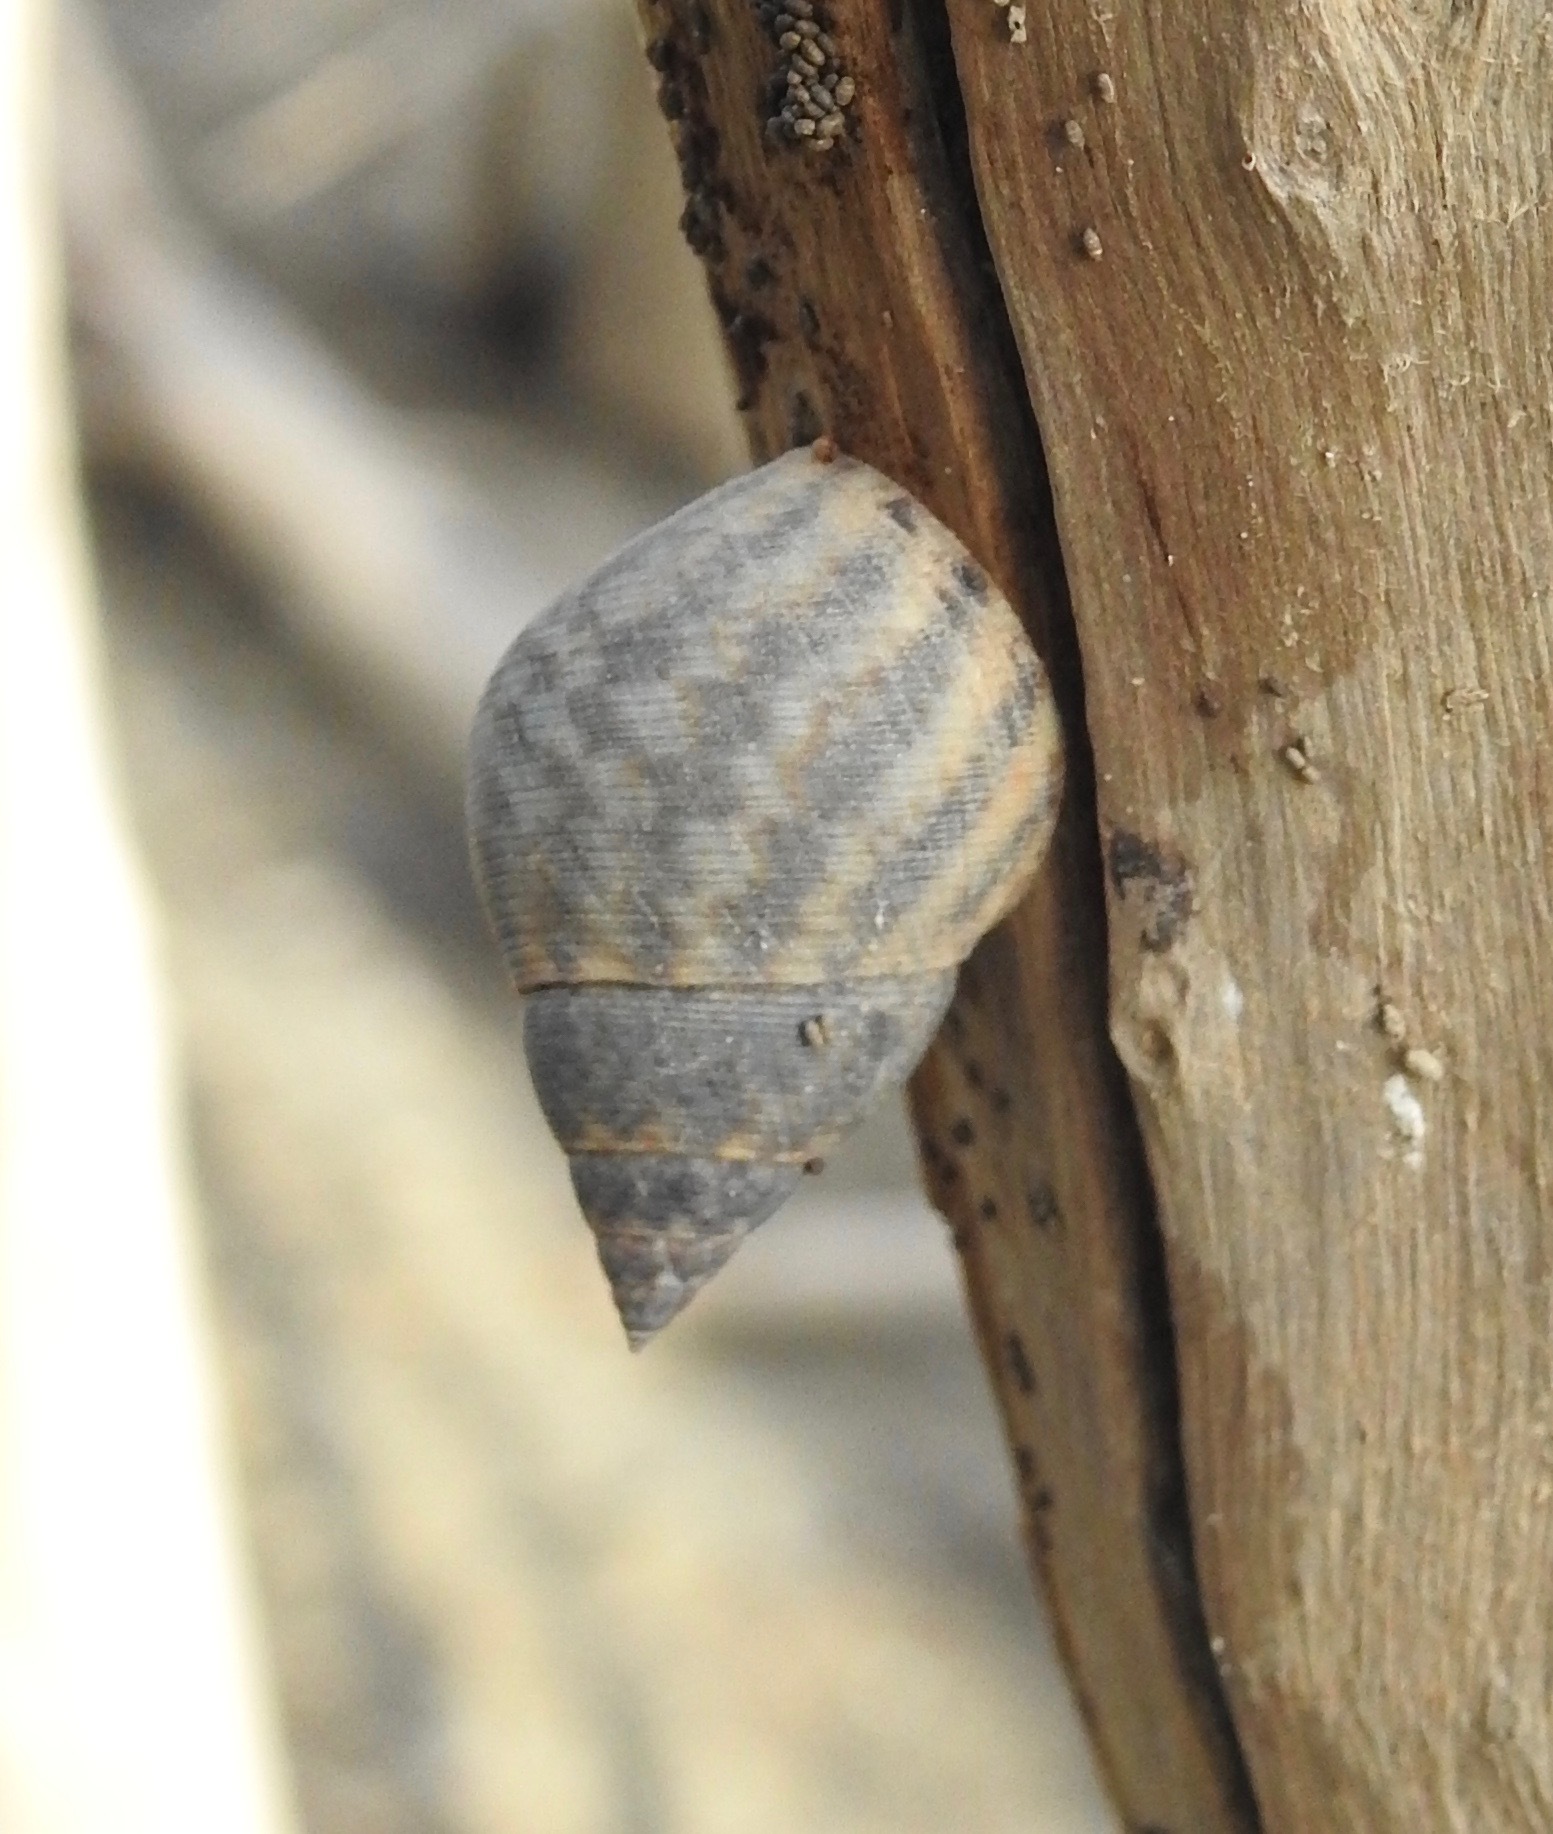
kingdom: Animalia
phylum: Mollusca
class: Gastropoda
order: Littorinimorpha
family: Littorinidae
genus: Littoraria
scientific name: Littoraria angulifera
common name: Mangrove periwinkle
